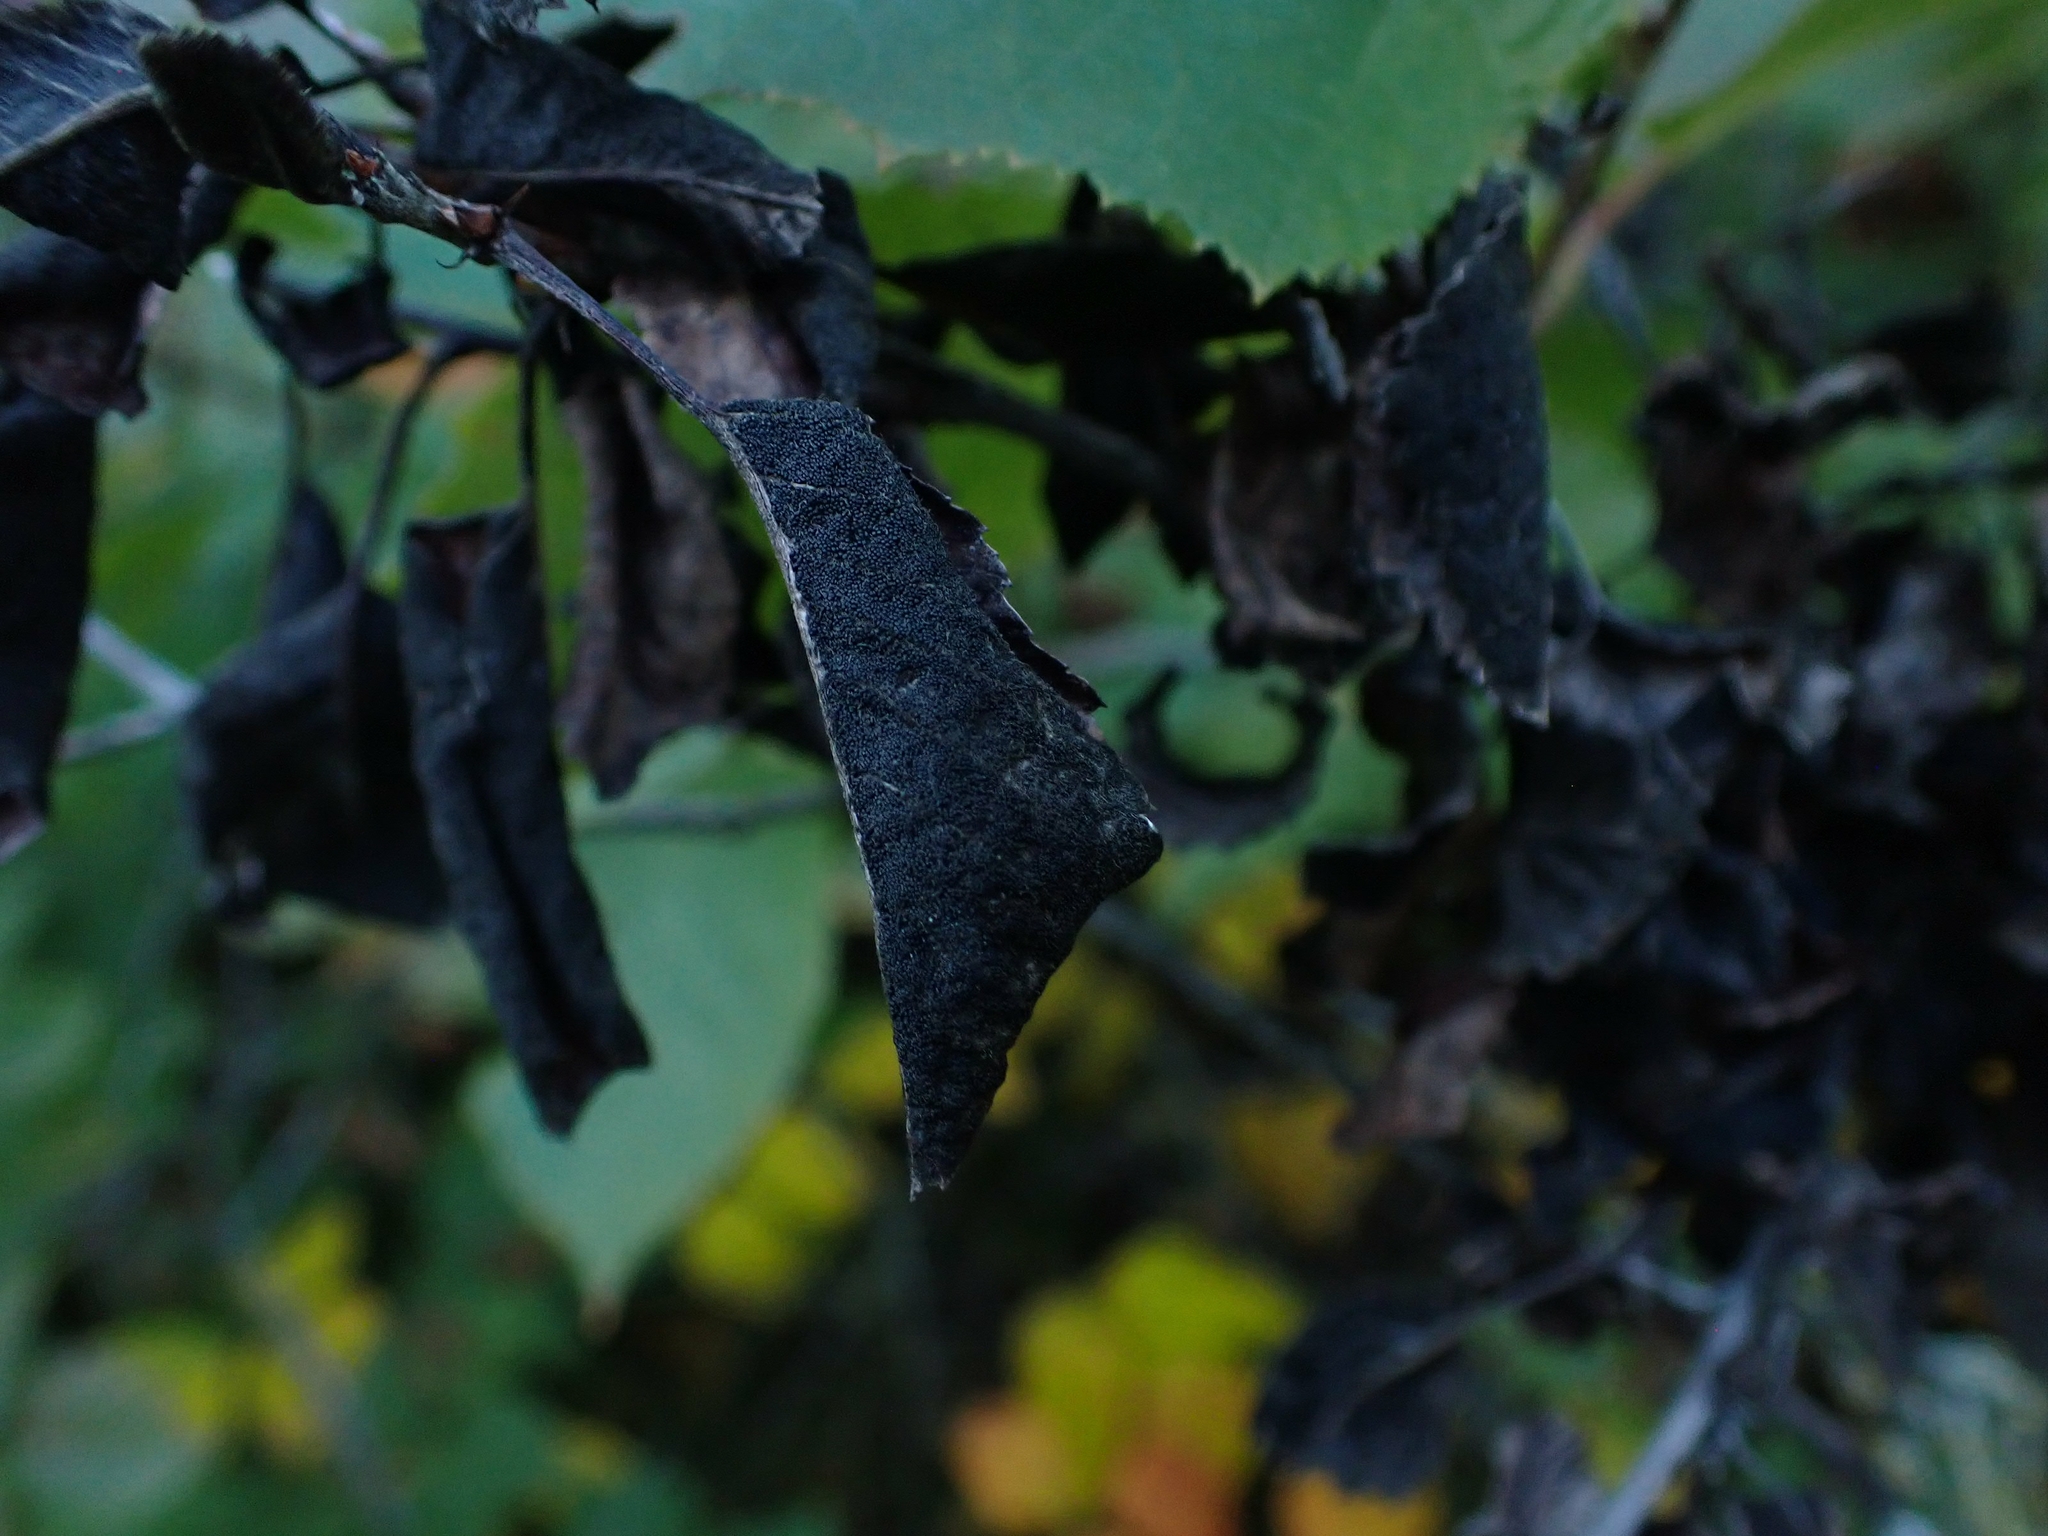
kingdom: Fungi
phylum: Ascomycota
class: Dothideomycetes
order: Venturiales
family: Venturiaceae
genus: Apiosporina
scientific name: Apiosporina collinsii
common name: Black leaf
